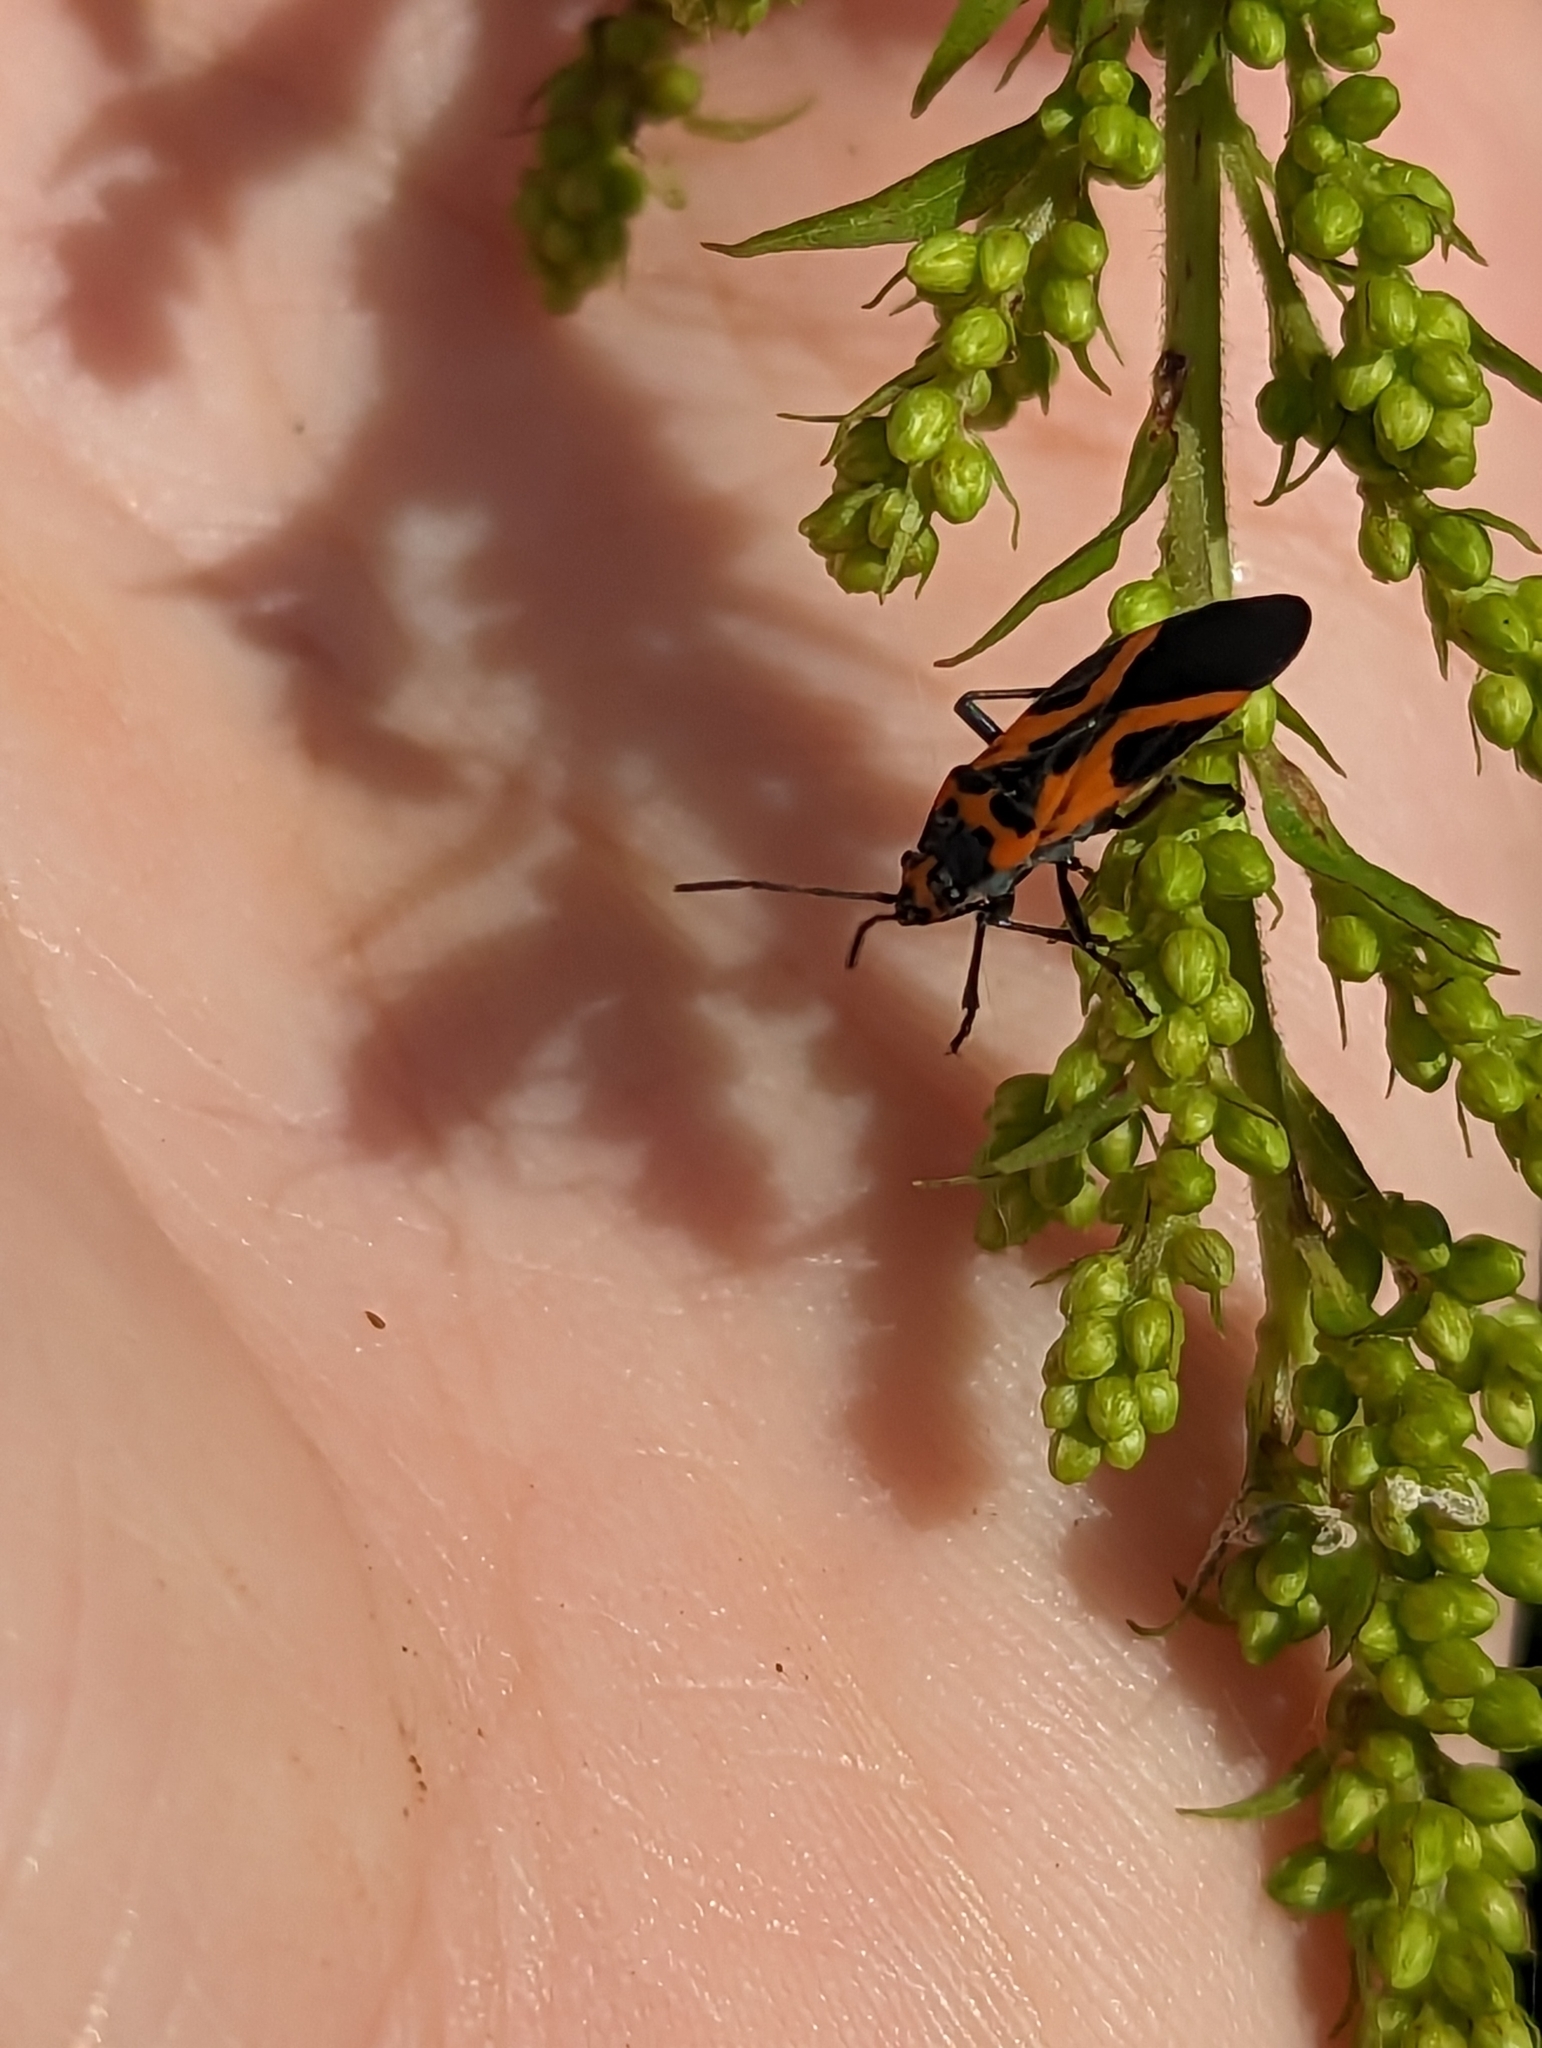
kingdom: Animalia
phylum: Arthropoda
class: Insecta
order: Hemiptera
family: Lygaeidae
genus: Lygaeus
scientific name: Lygaeus turcicus
